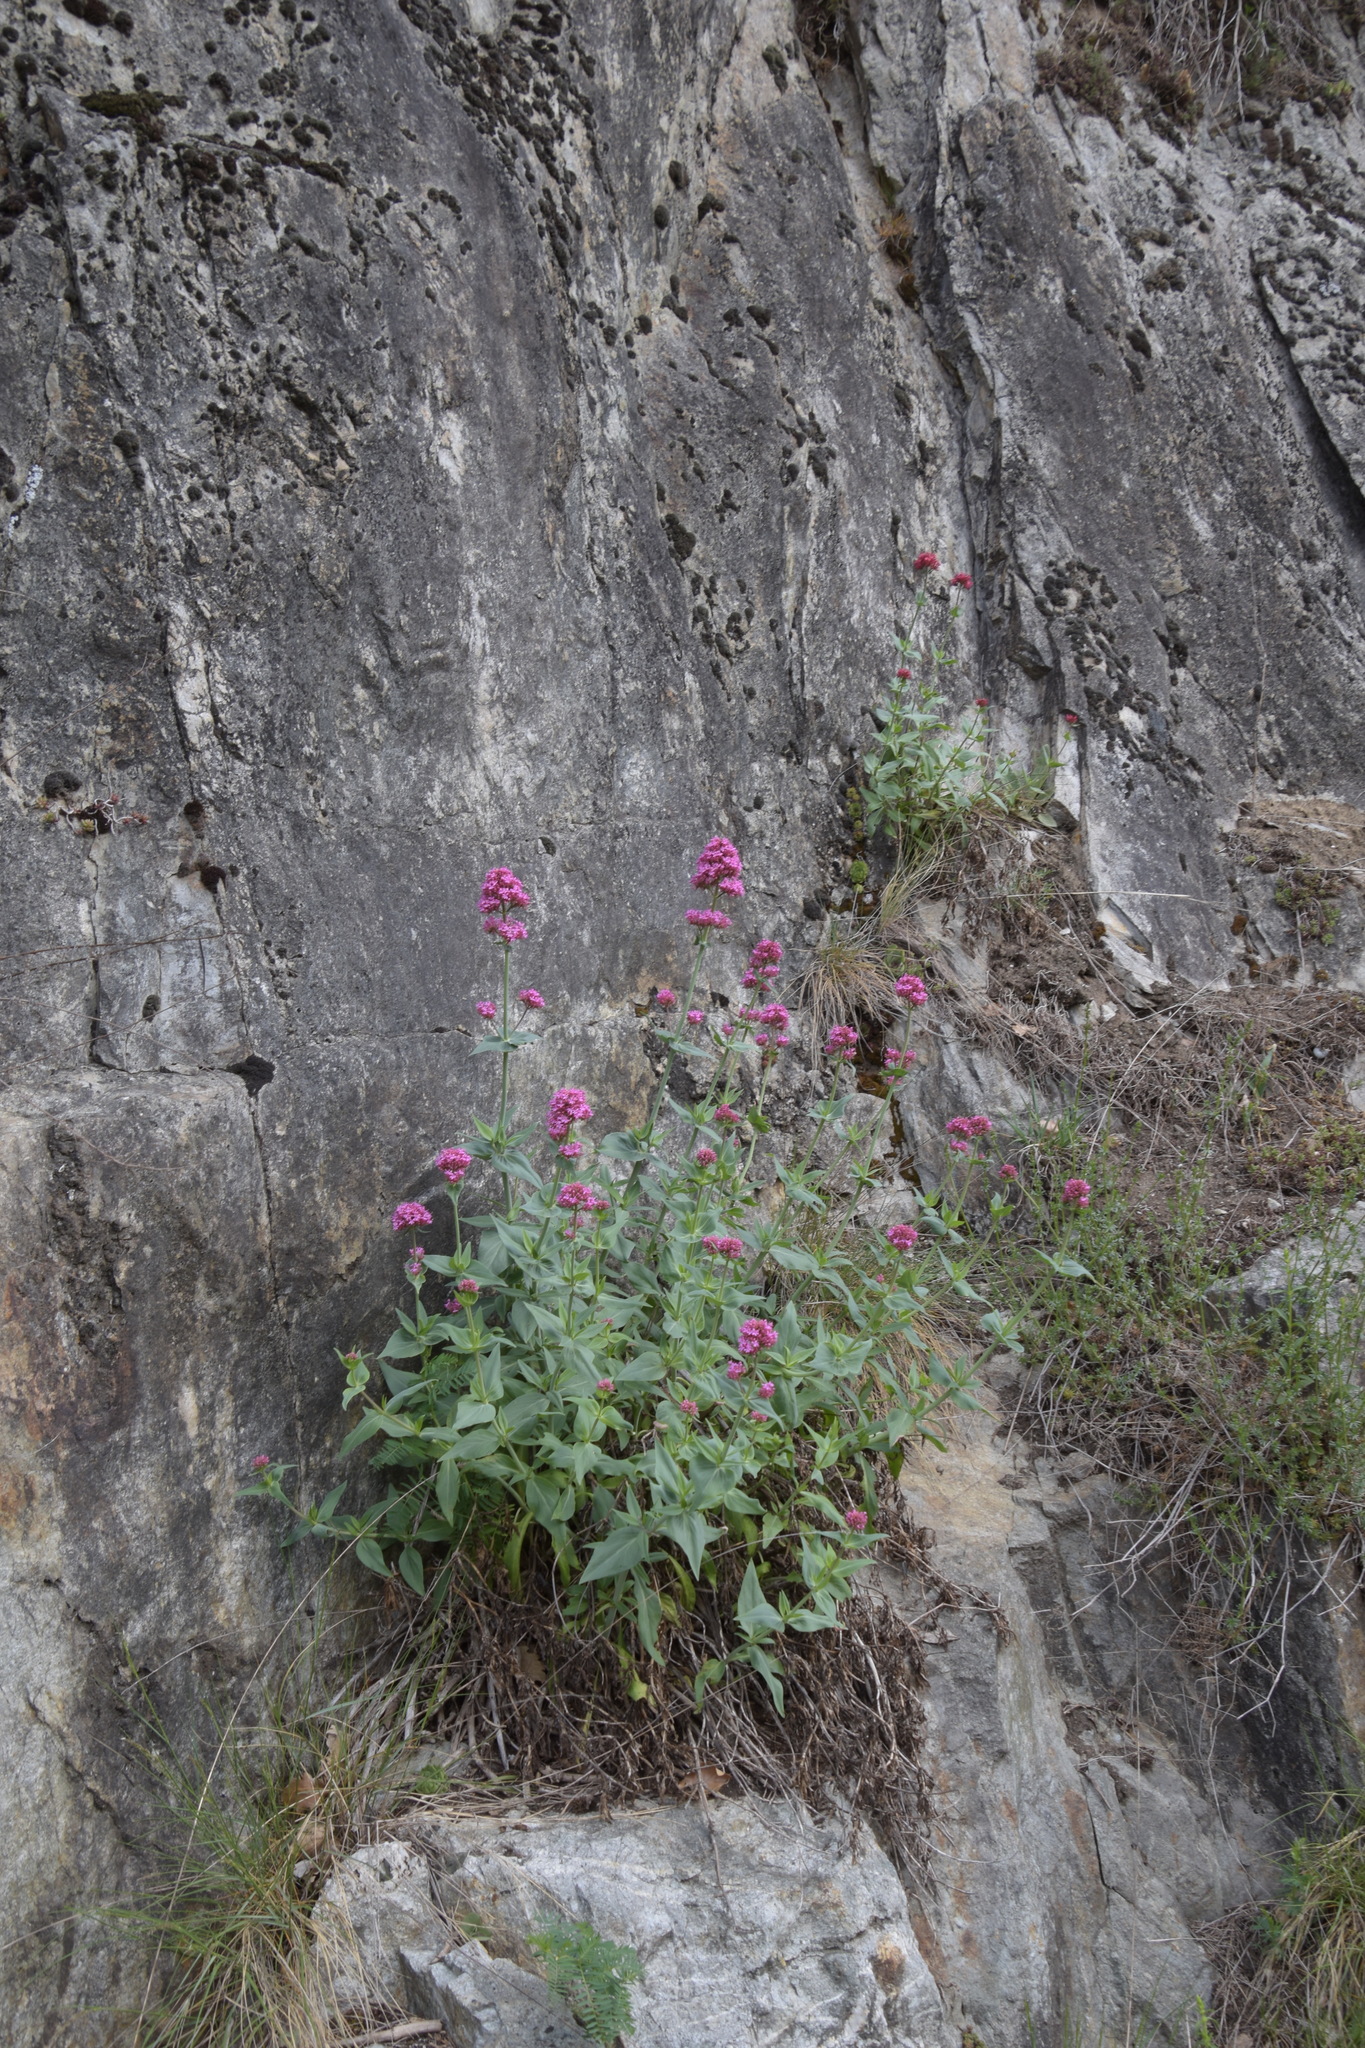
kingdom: Plantae
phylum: Tracheophyta
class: Magnoliopsida
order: Dipsacales
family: Caprifoliaceae
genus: Centranthus
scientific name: Centranthus ruber
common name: Red valerian
